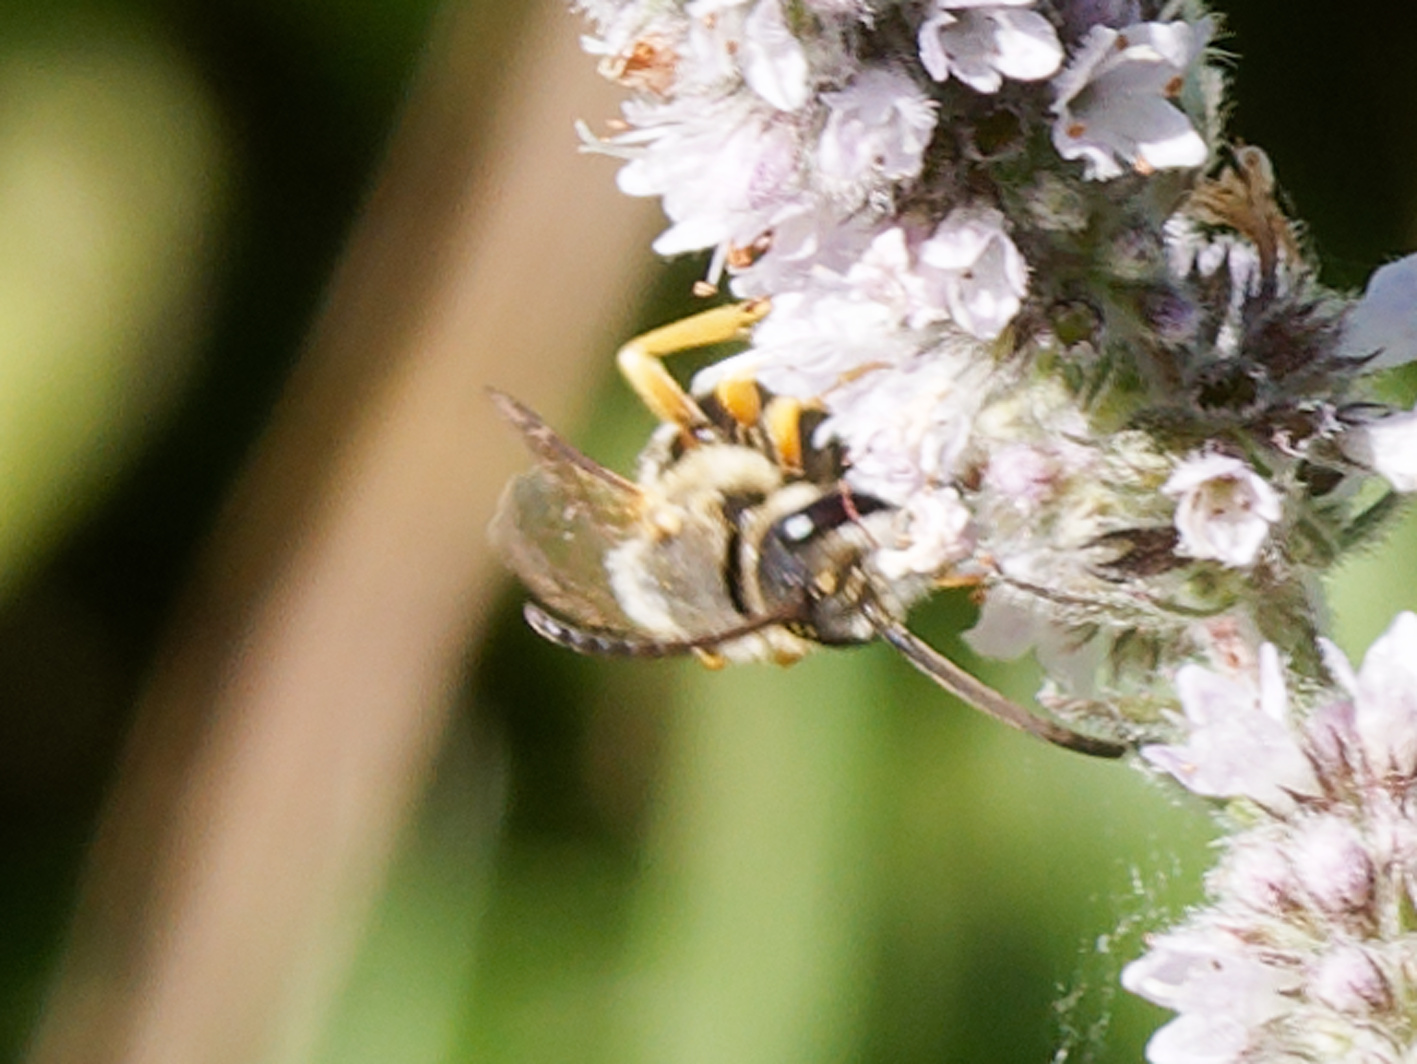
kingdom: Animalia
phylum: Arthropoda
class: Insecta
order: Hymenoptera
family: Halictidae
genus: Halictus
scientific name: Halictus scabiosae
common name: Great banded furrow bee
